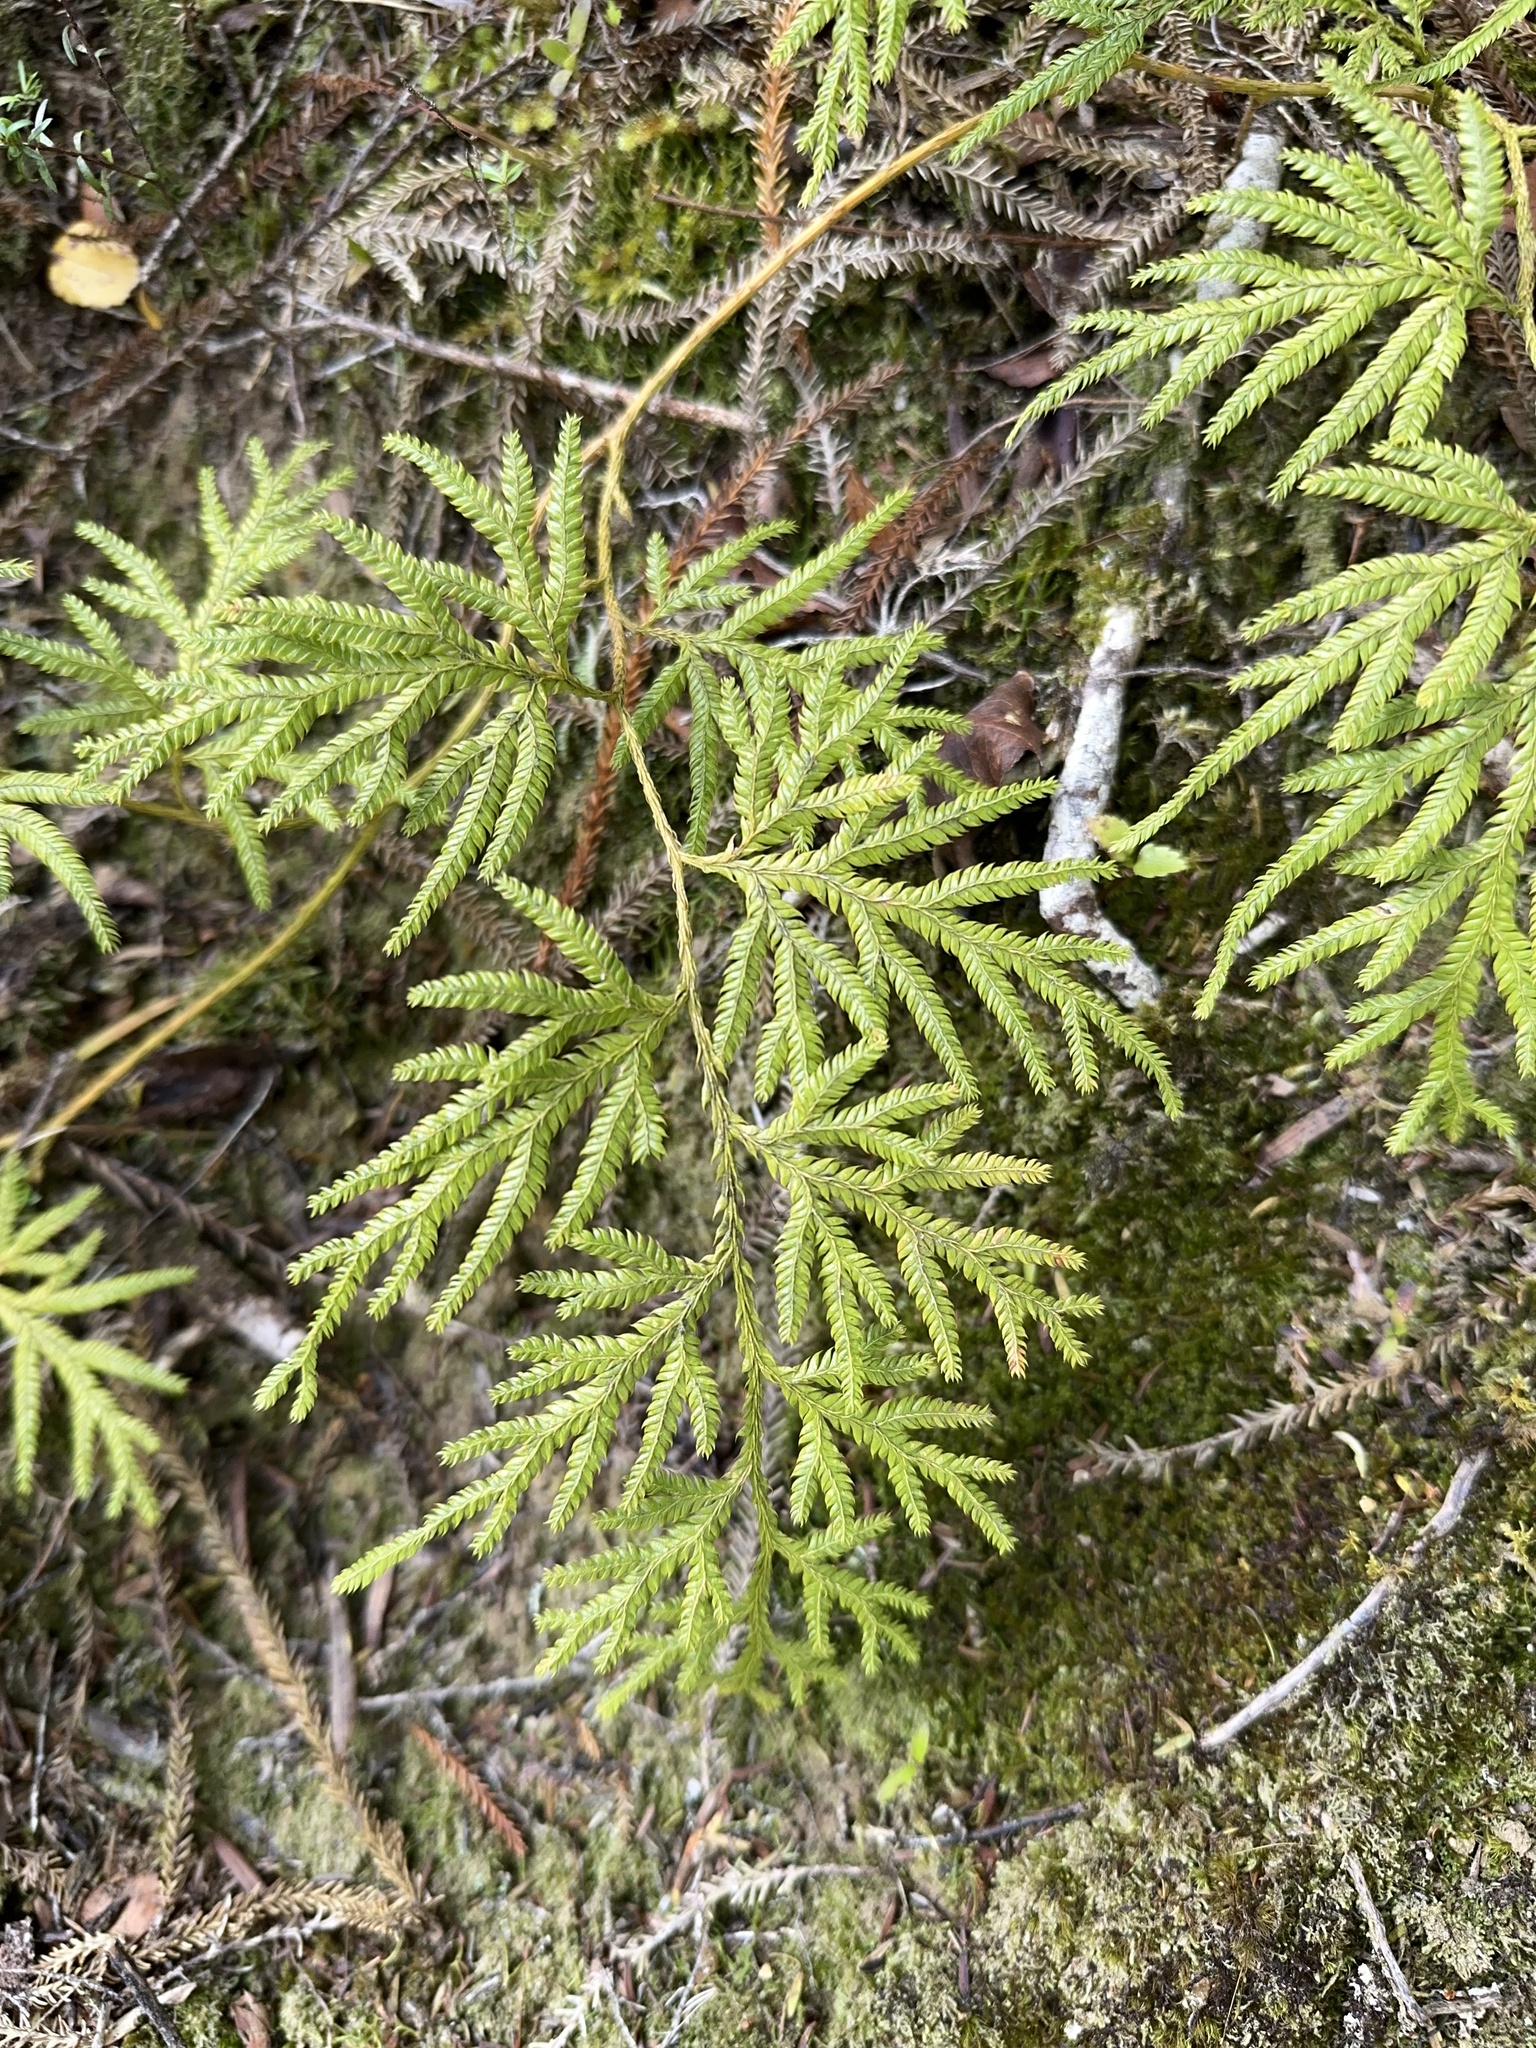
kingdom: Plantae
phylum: Tracheophyta
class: Lycopodiopsida
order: Lycopodiales
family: Lycopodiaceae
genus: Lycopodium
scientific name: Lycopodium volubile
